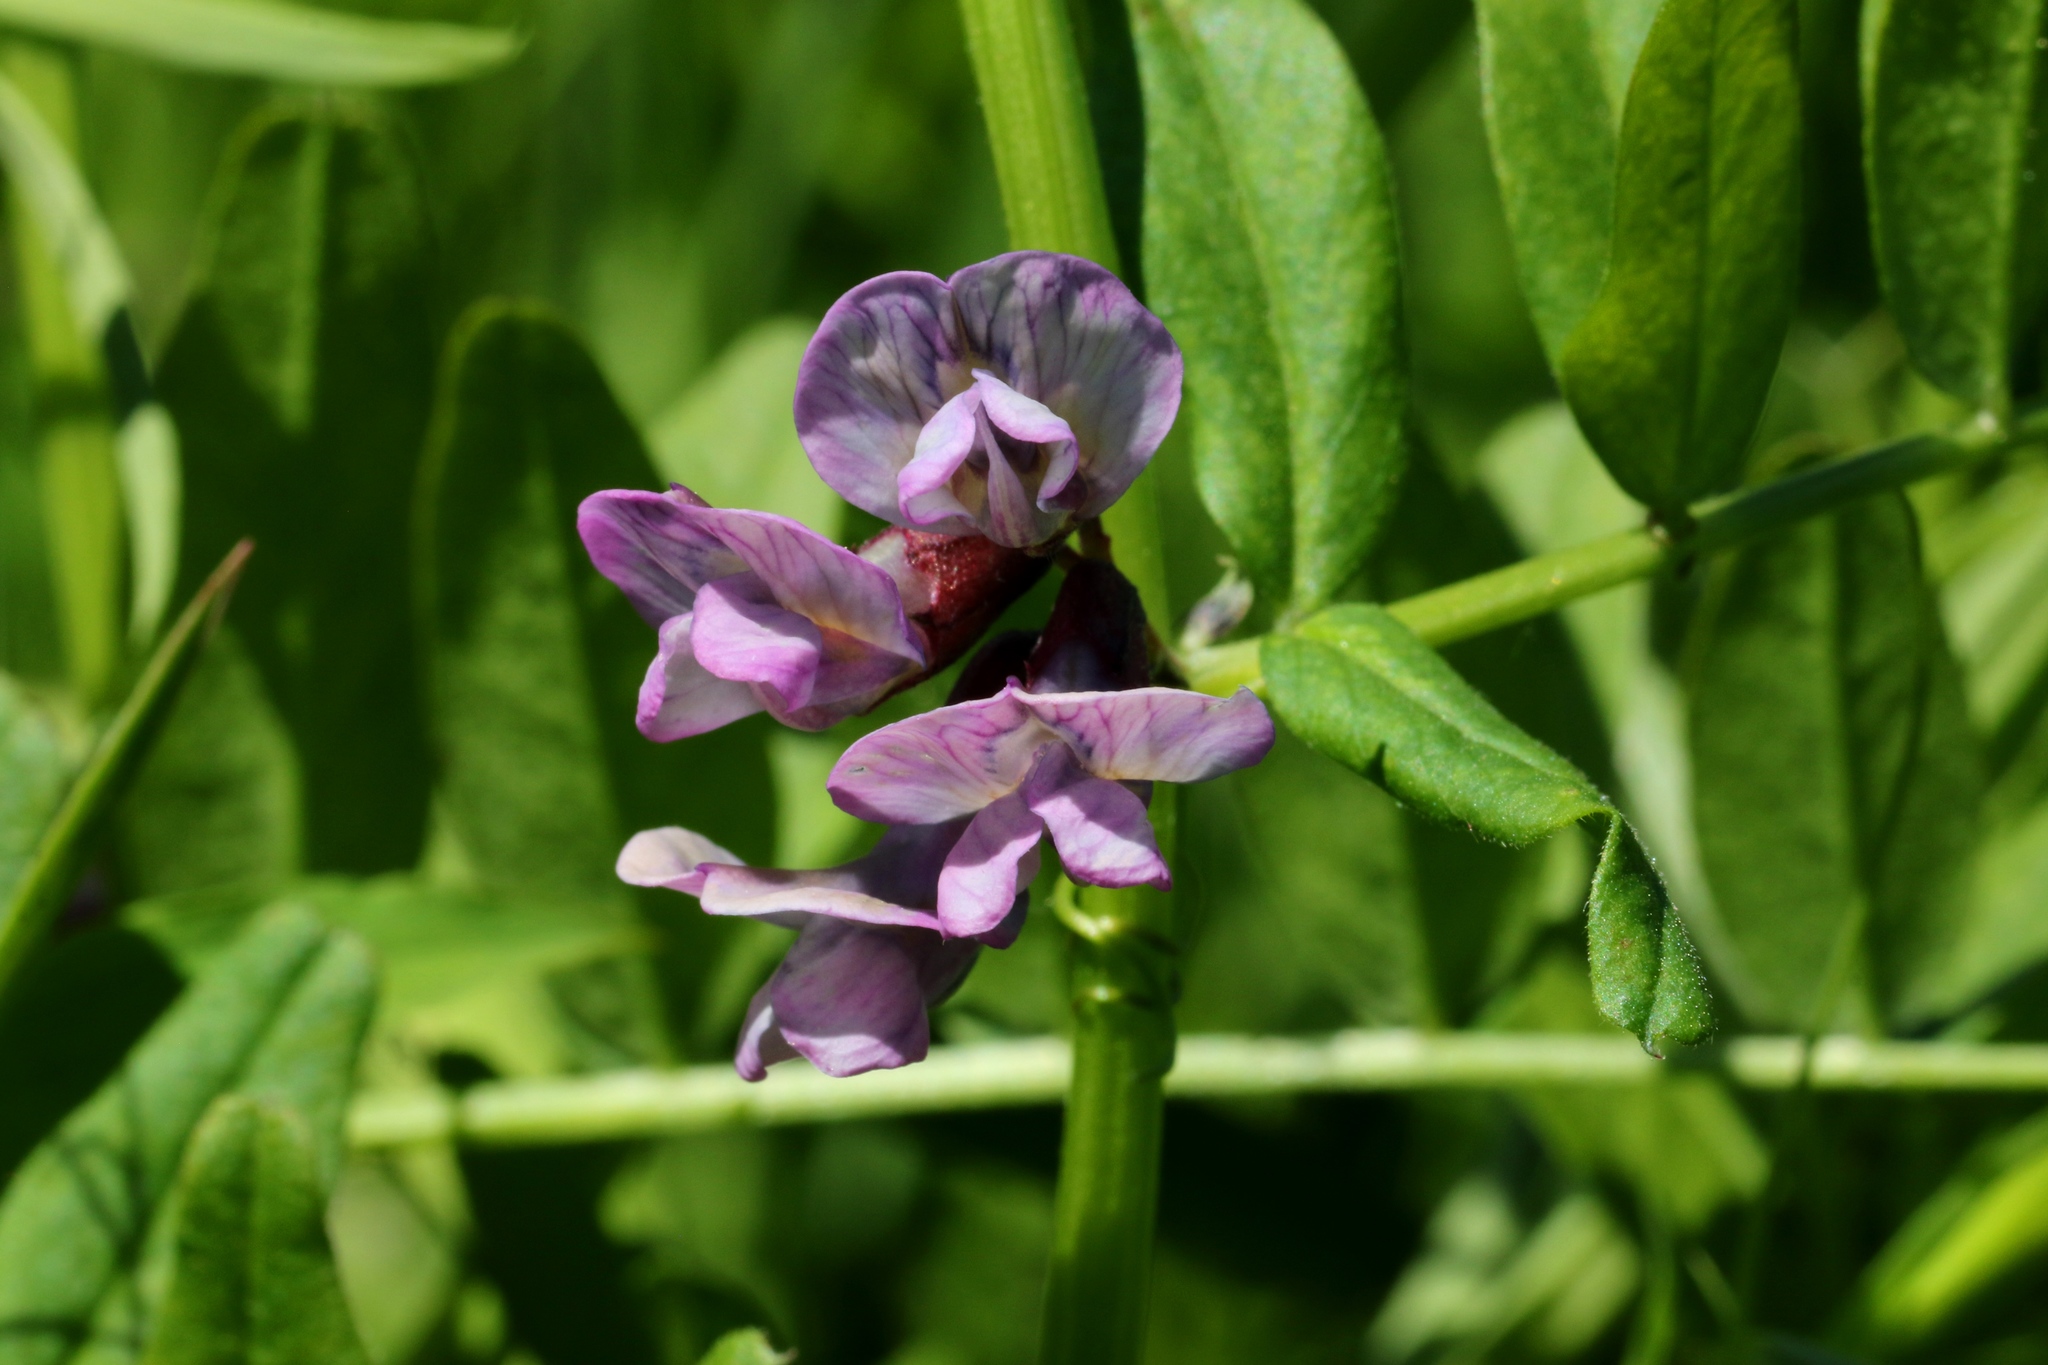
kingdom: Plantae
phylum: Tracheophyta
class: Magnoliopsida
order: Fabales
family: Fabaceae
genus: Vicia
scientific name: Vicia sepium
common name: Bush vetch
